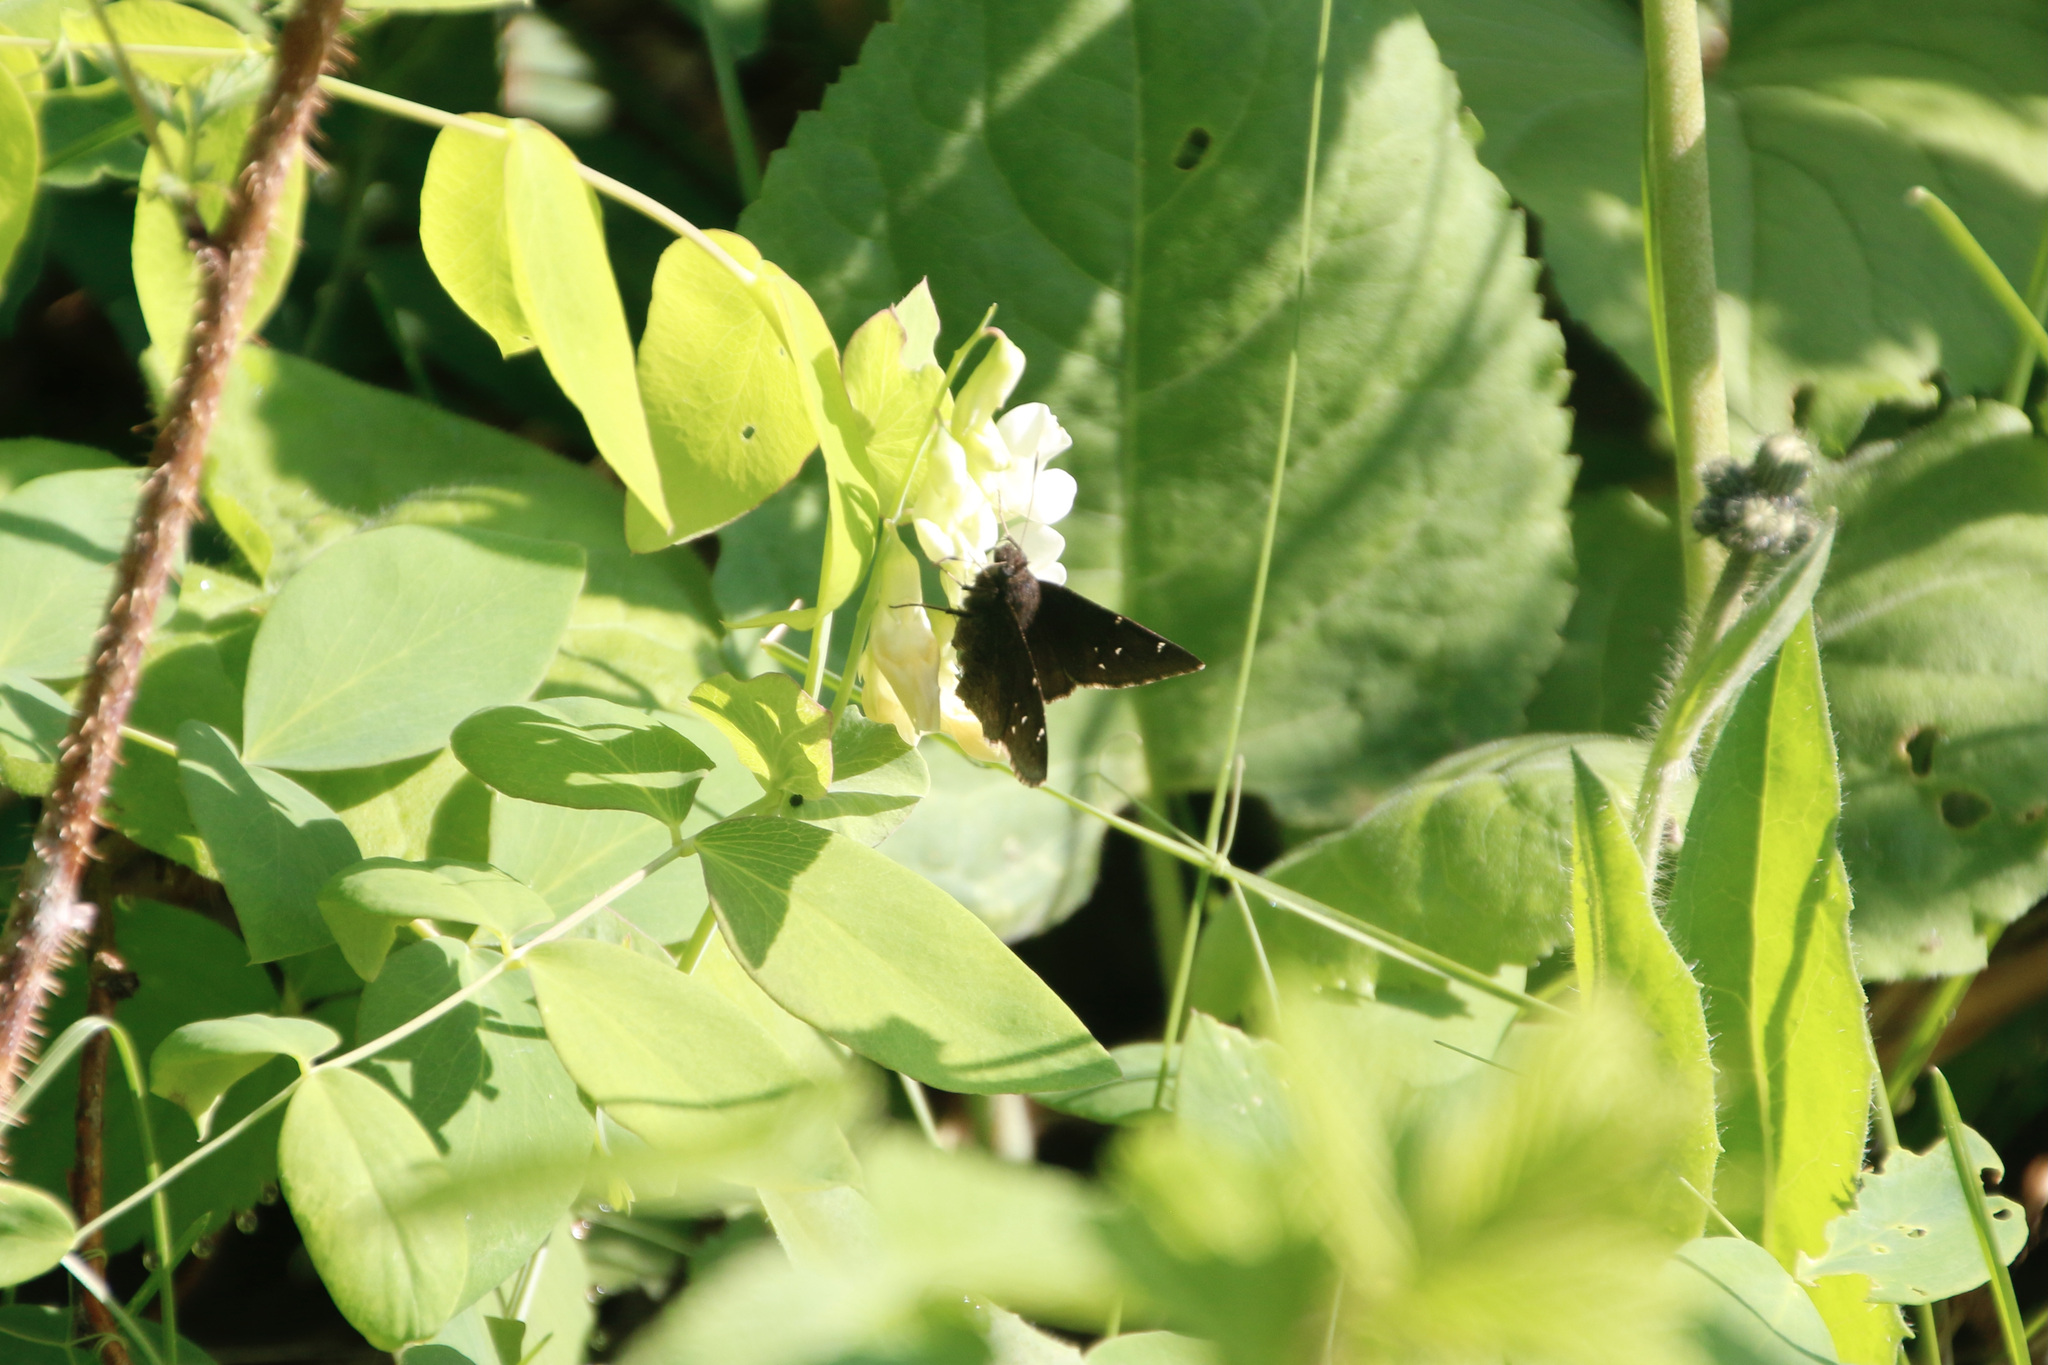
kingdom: Animalia
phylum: Arthropoda
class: Insecta
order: Lepidoptera
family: Hesperiidae
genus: Thorybes
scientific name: Thorybes pylades
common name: Northern cloudywing
